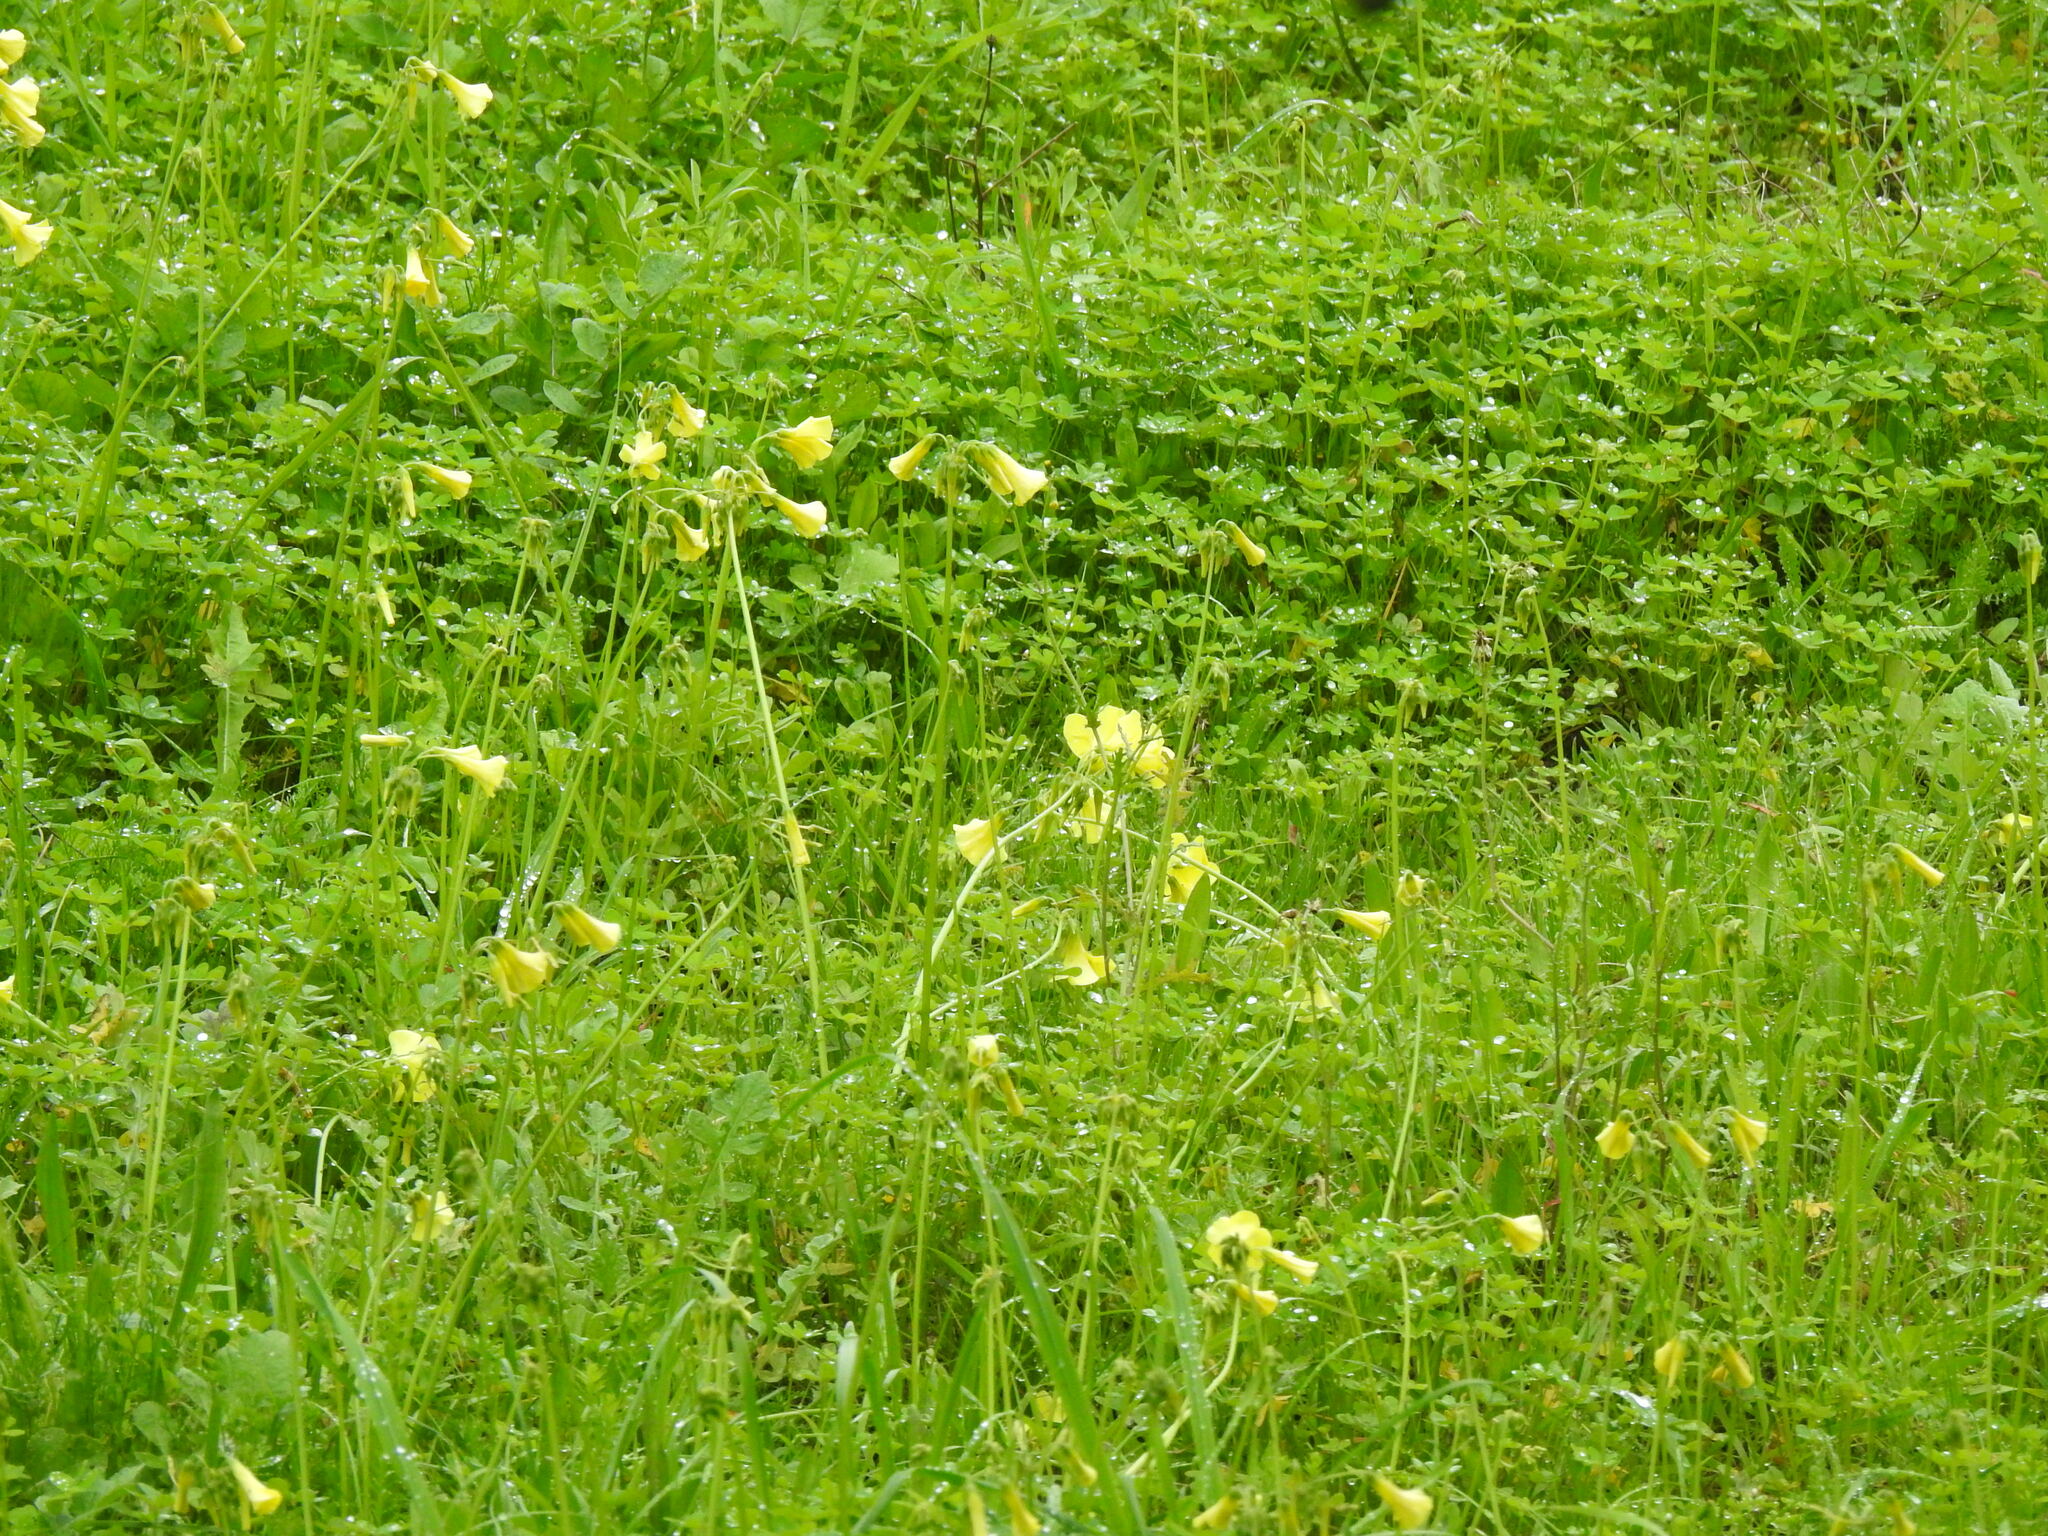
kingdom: Plantae
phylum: Tracheophyta
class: Magnoliopsida
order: Oxalidales
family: Oxalidaceae
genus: Oxalis
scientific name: Oxalis pes-caprae
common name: Bermuda-buttercup
